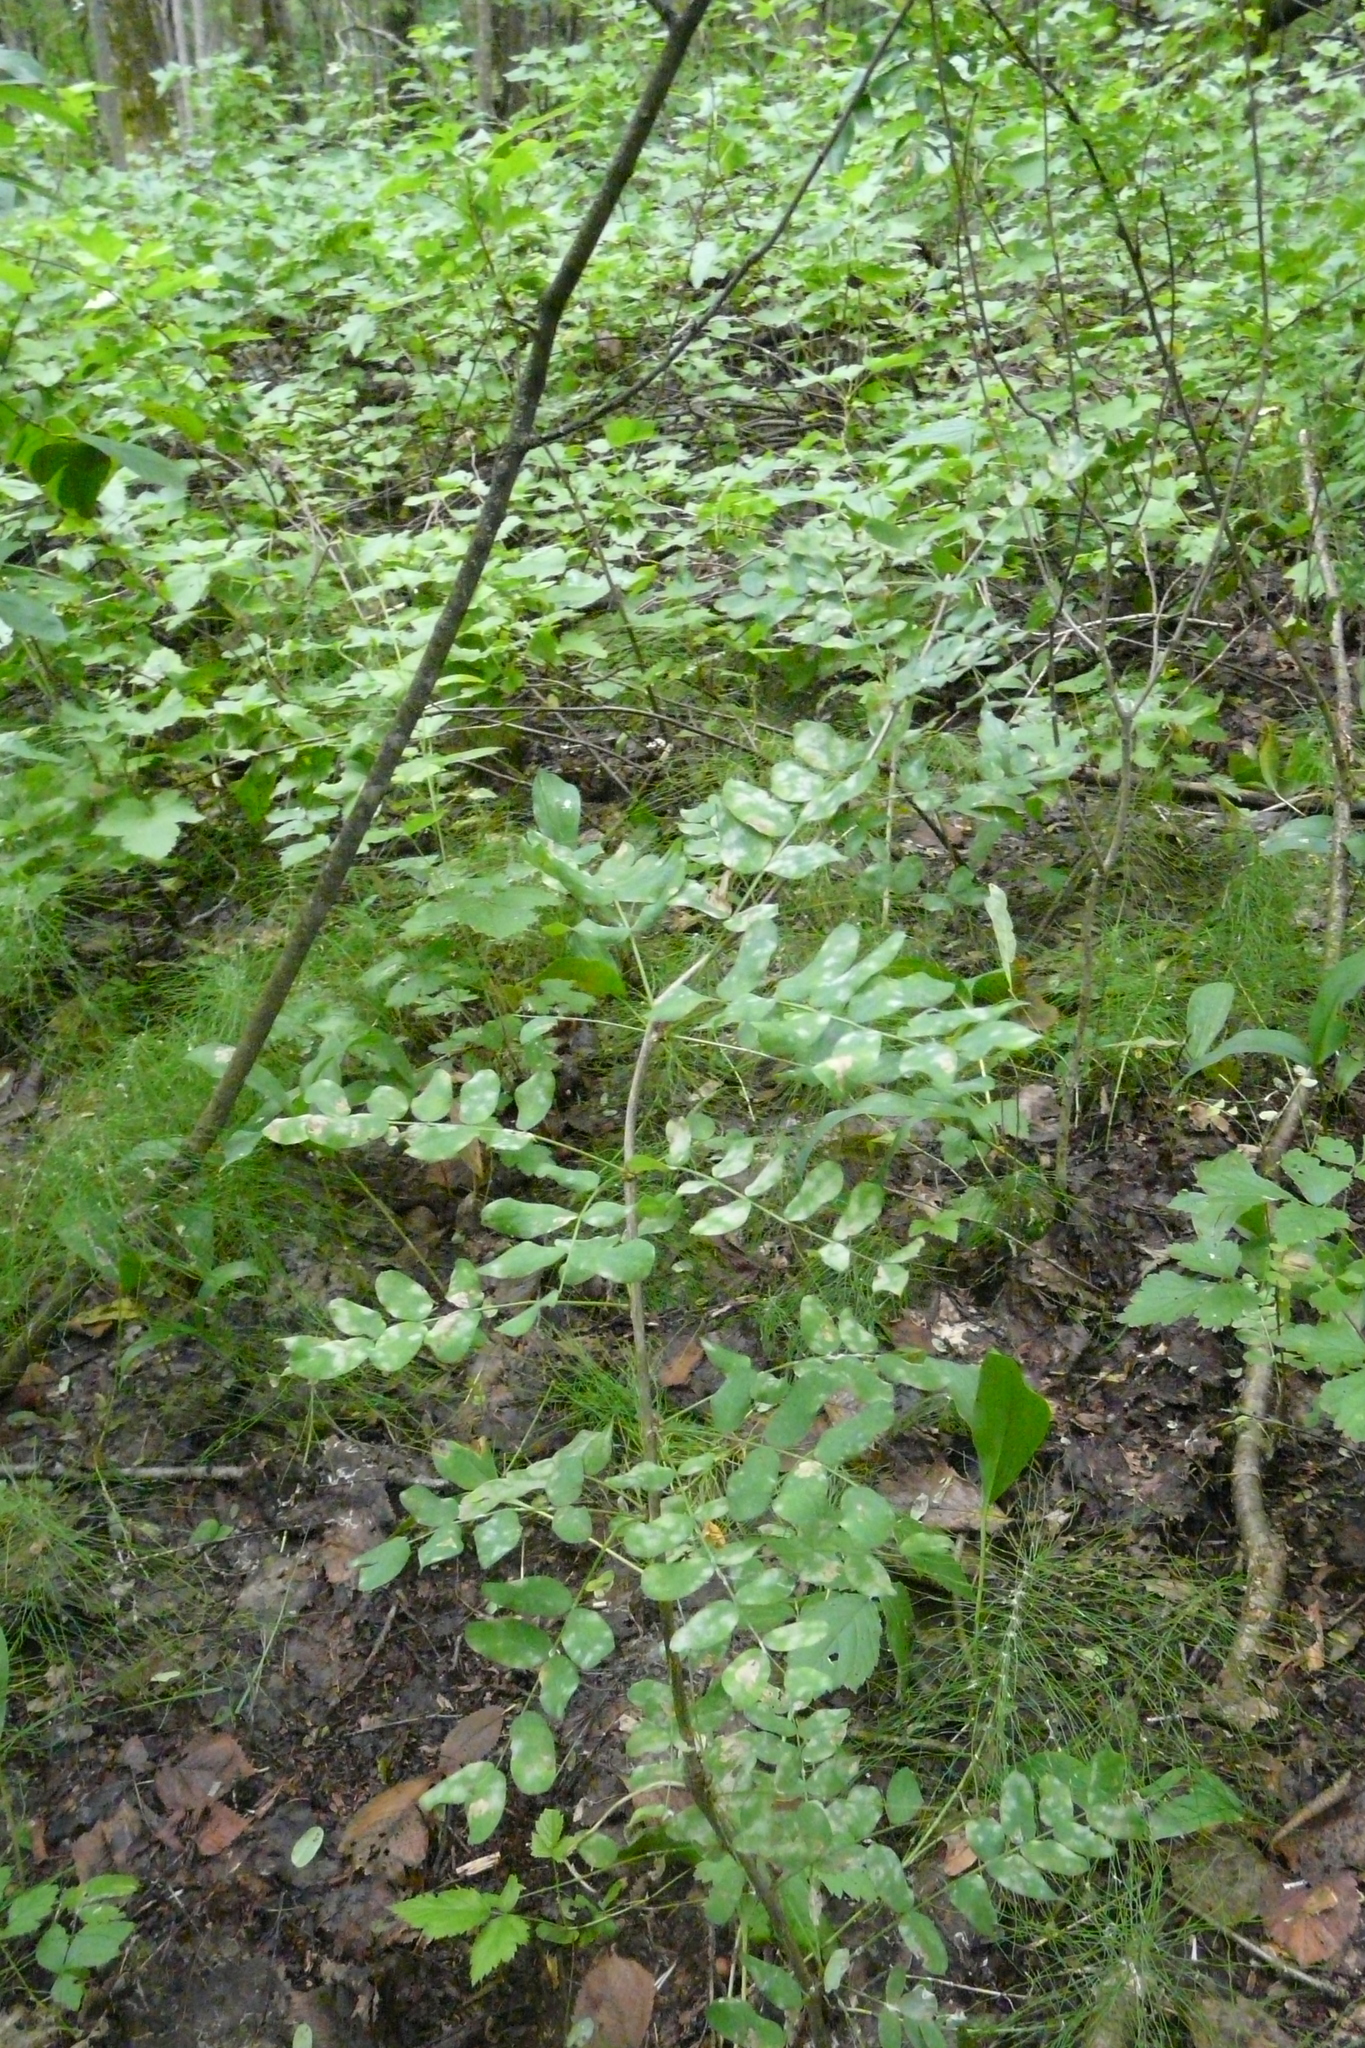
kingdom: Plantae
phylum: Tracheophyta
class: Magnoliopsida
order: Fabales
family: Fabaceae
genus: Caragana
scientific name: Caragana arborescens
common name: Siberian peashrub
